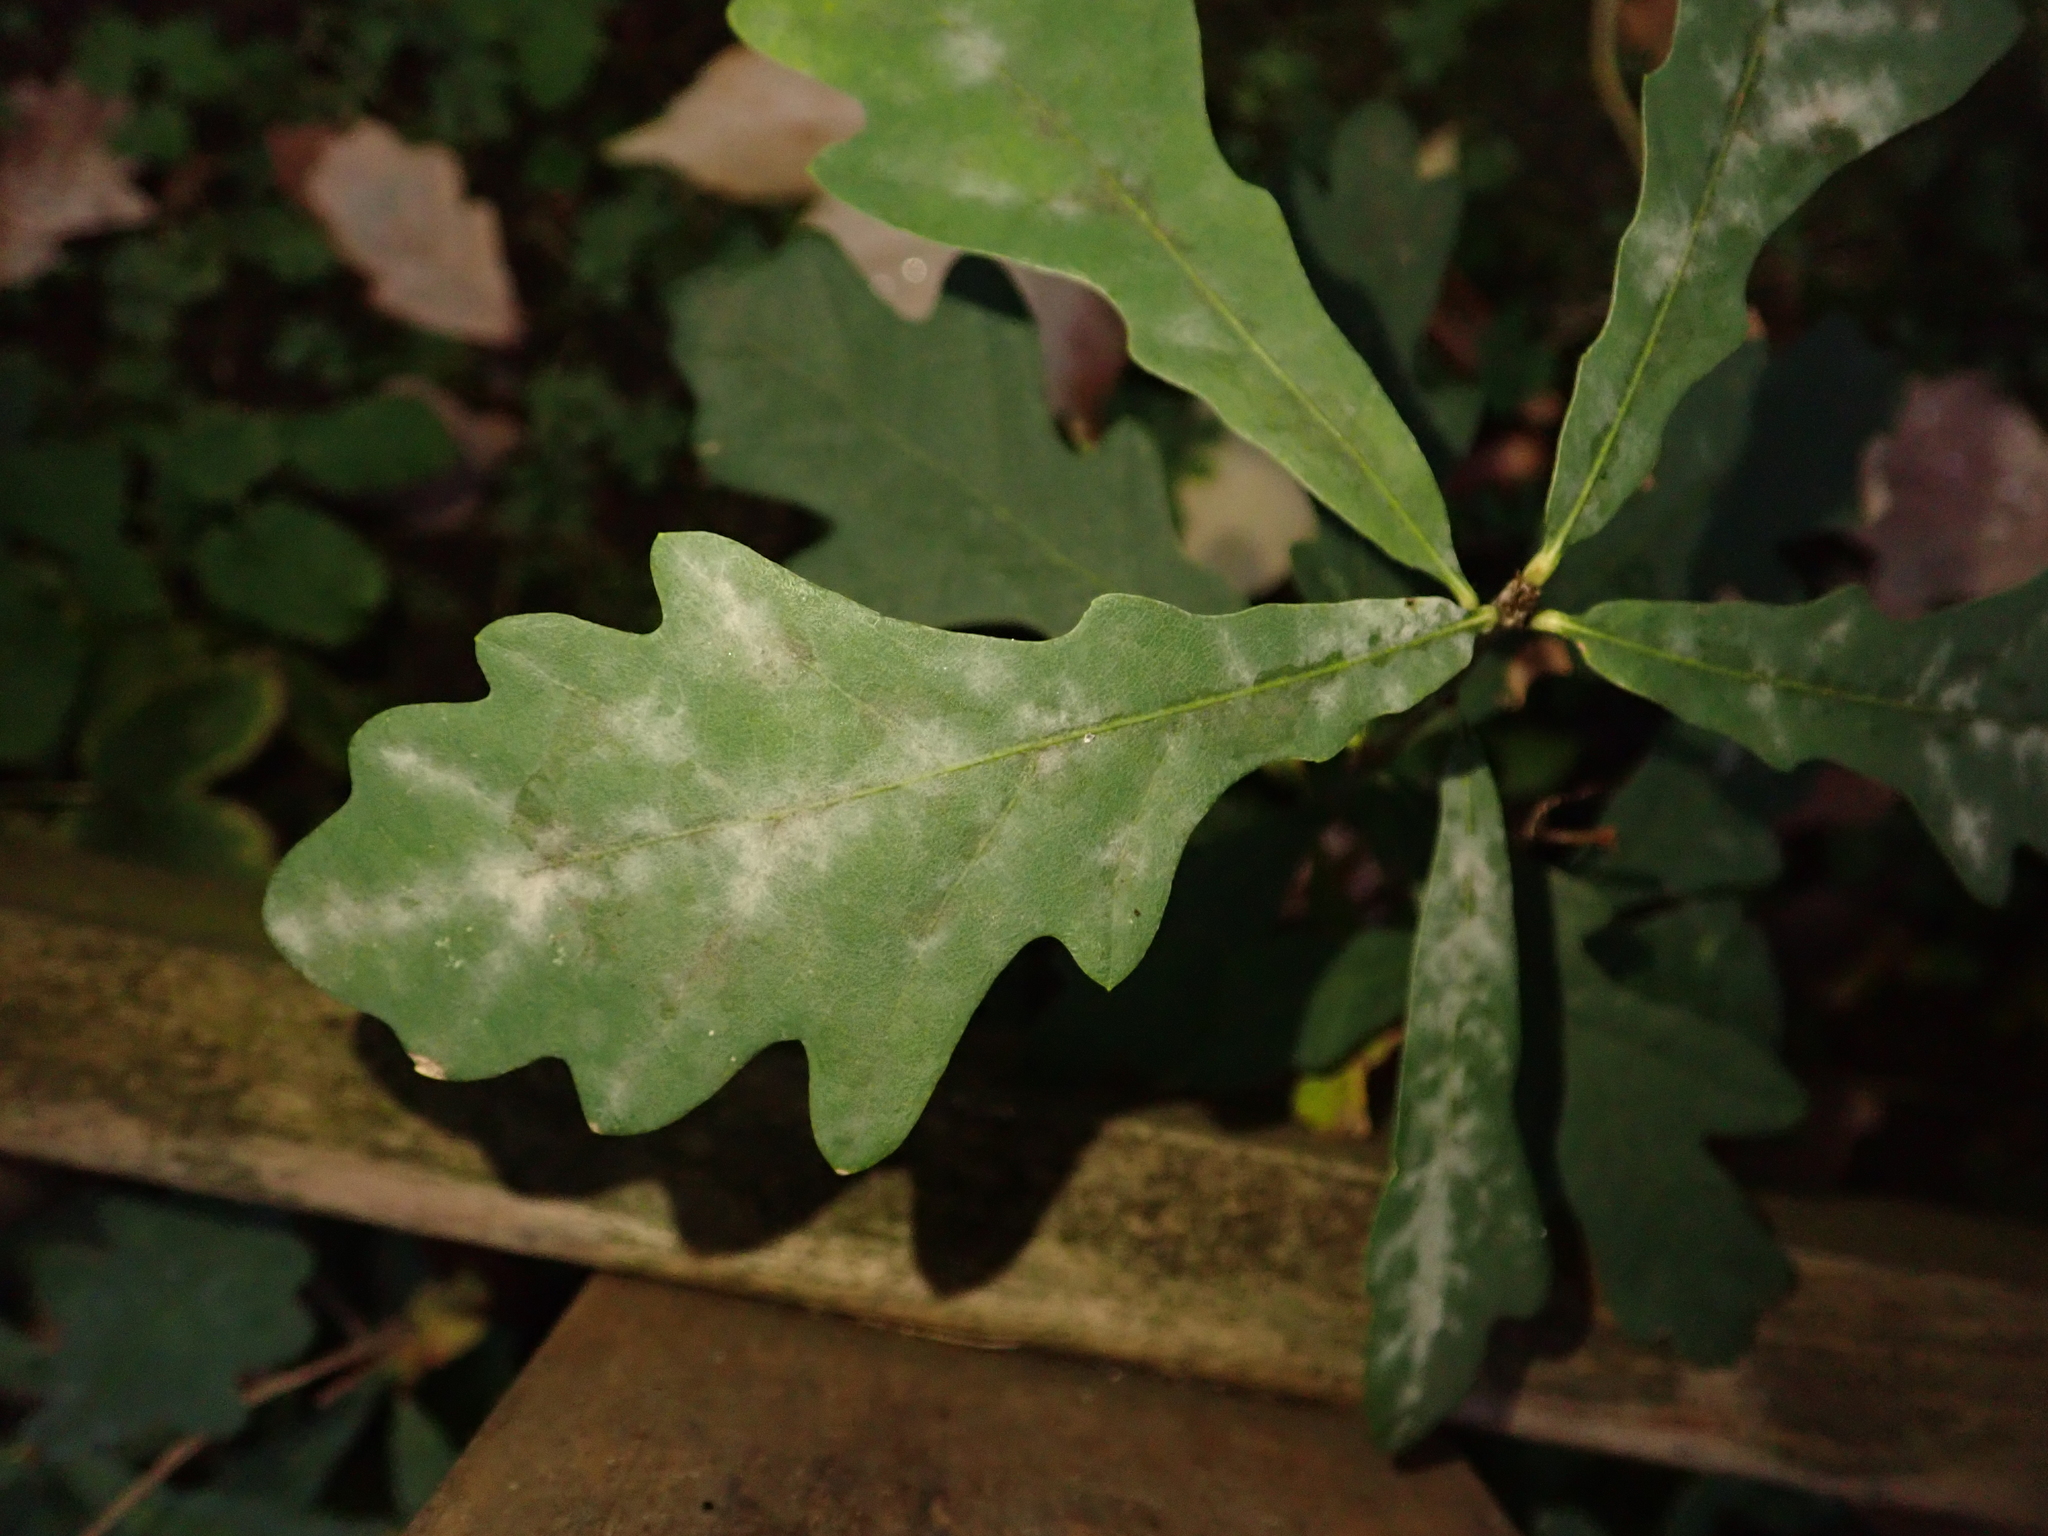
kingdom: Plantae
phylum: Tracheophyta
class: Magnoliopsida
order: Fagales
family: Fagaceae
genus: Quercus
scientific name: Quercus robur
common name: Pedunculate oak
